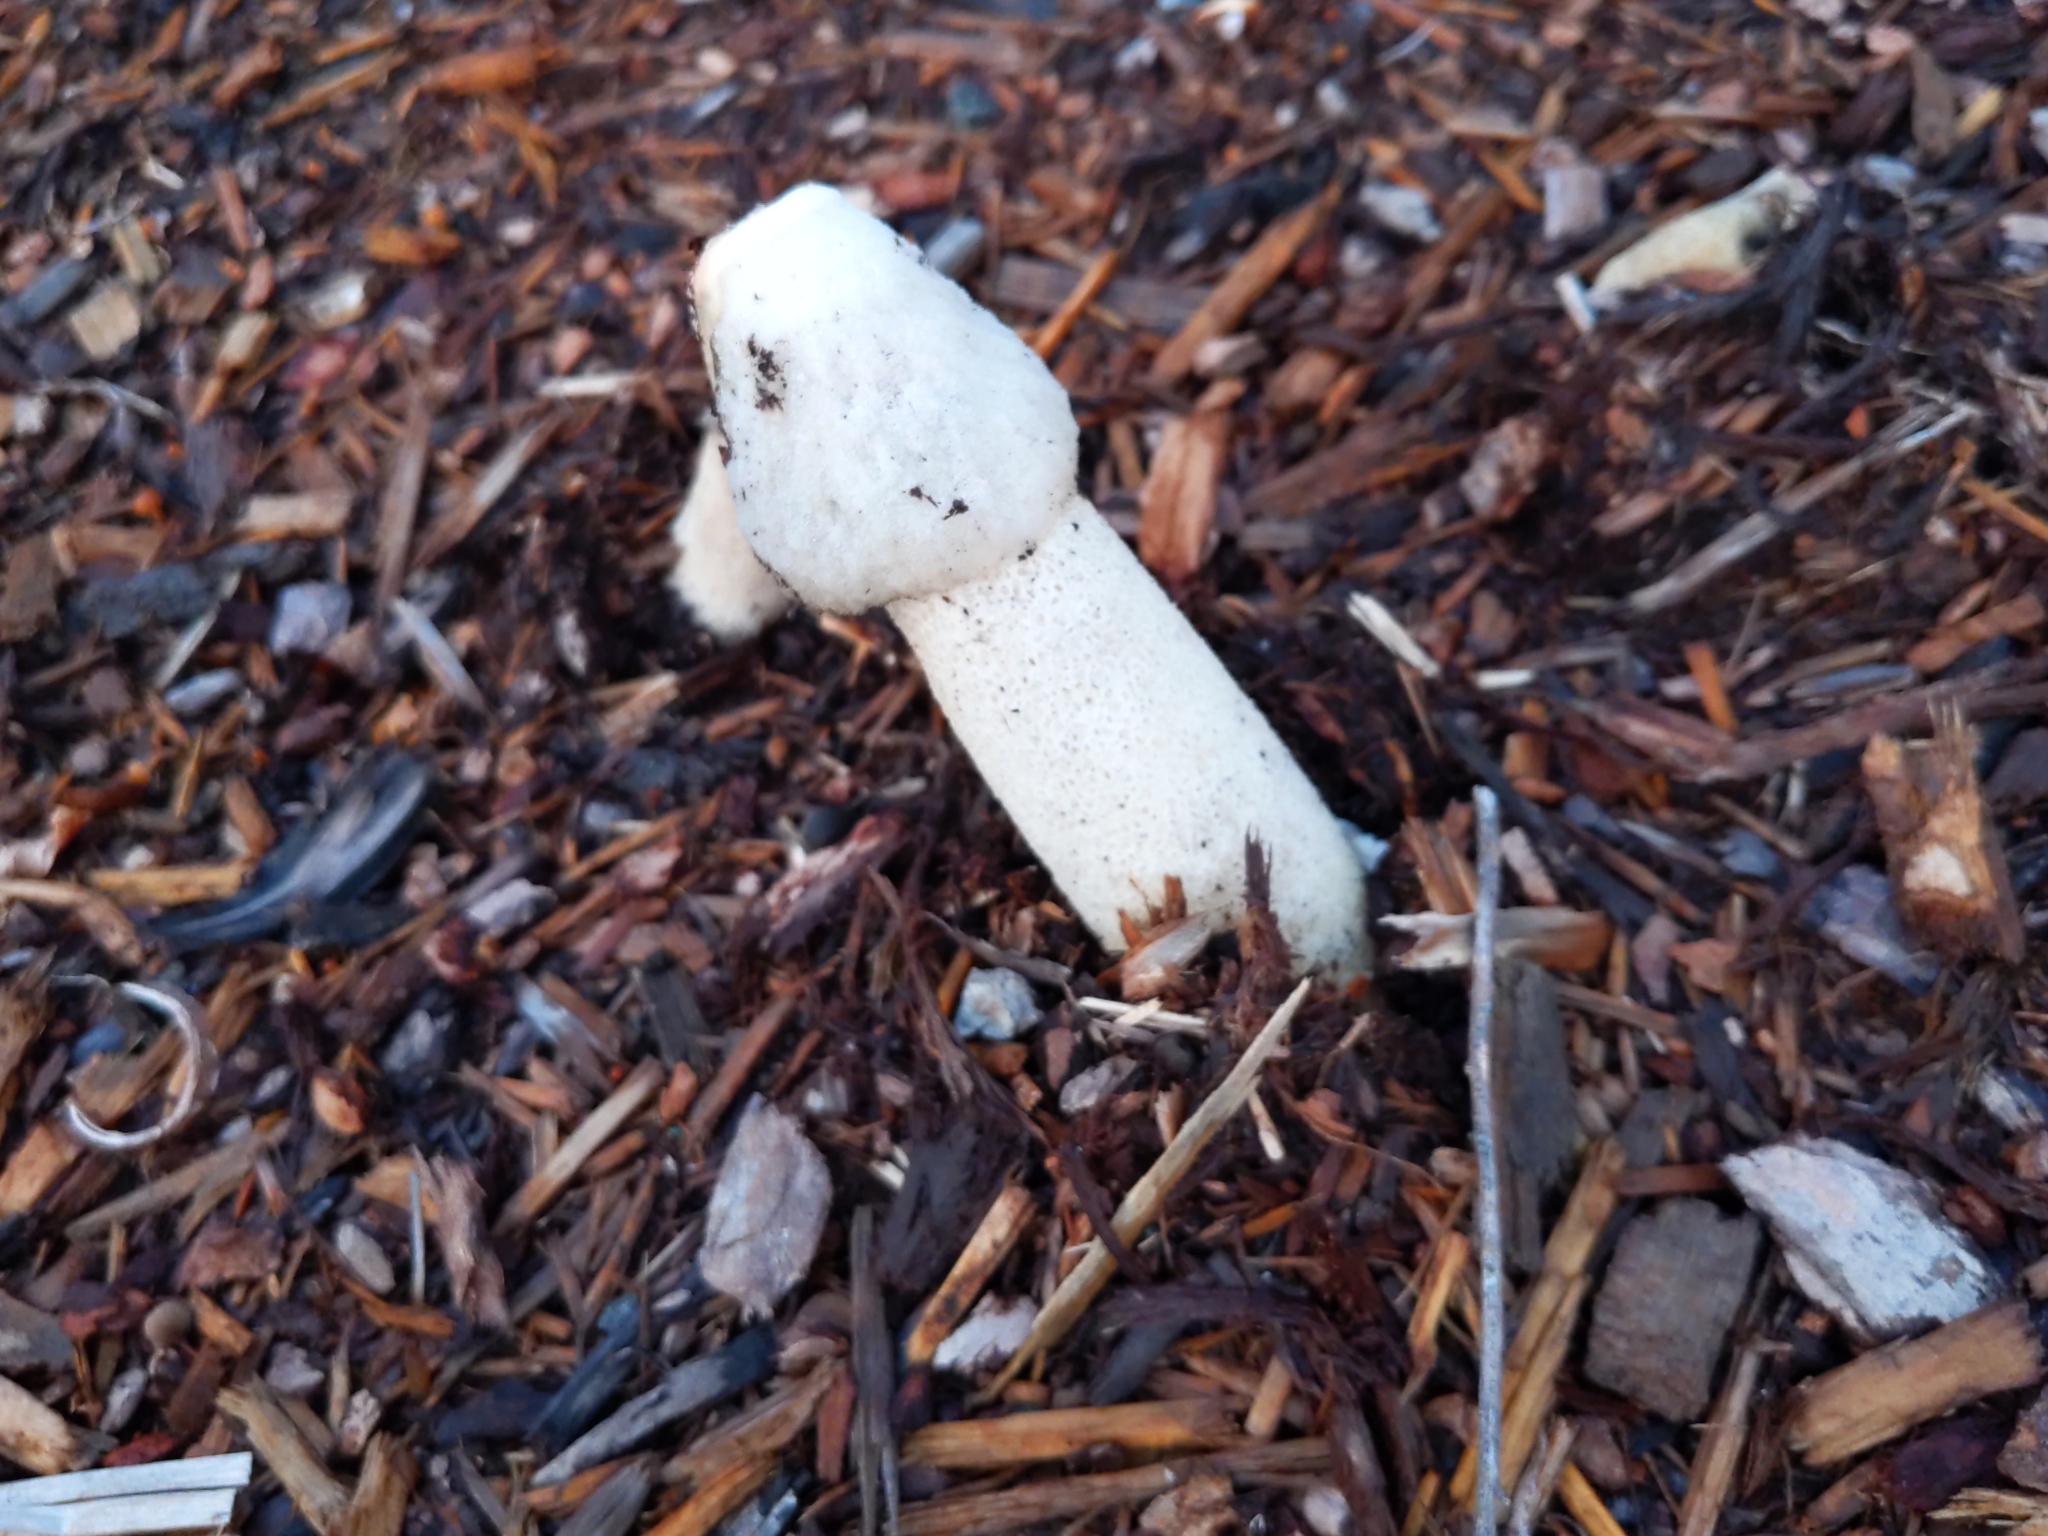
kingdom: Fungi
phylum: Basidiomycota
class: Agaricomycetes
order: Phallales
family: Phallaceae
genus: Phallus
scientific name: Phallus ravenelii
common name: Ravenel's stinkhorn
